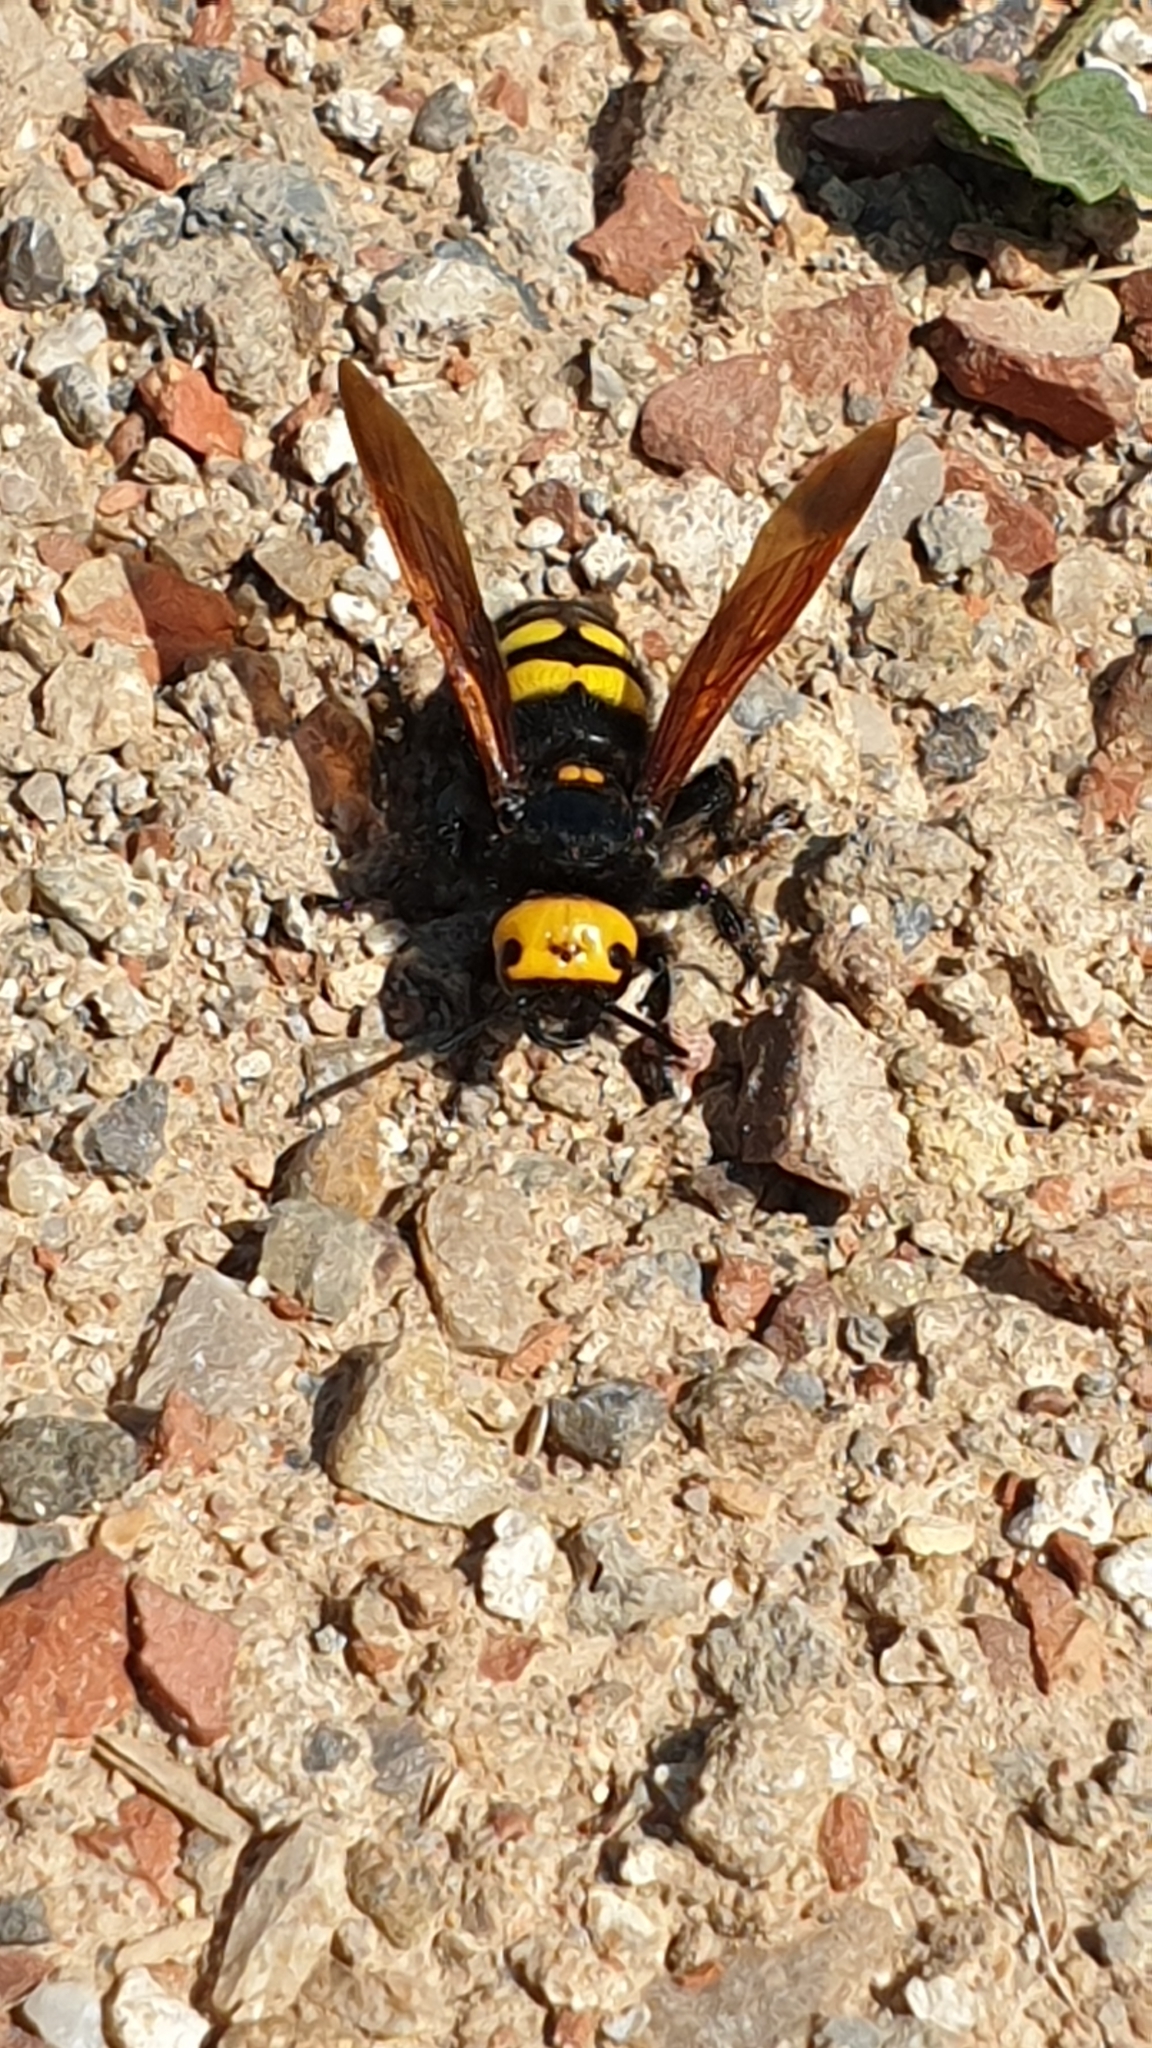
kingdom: Animalia
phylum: Arthropoda
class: Insecta
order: Hymenoptera
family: Scoliidae
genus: Megascolia
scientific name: Megascolia maculata
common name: Mammoth wasp
